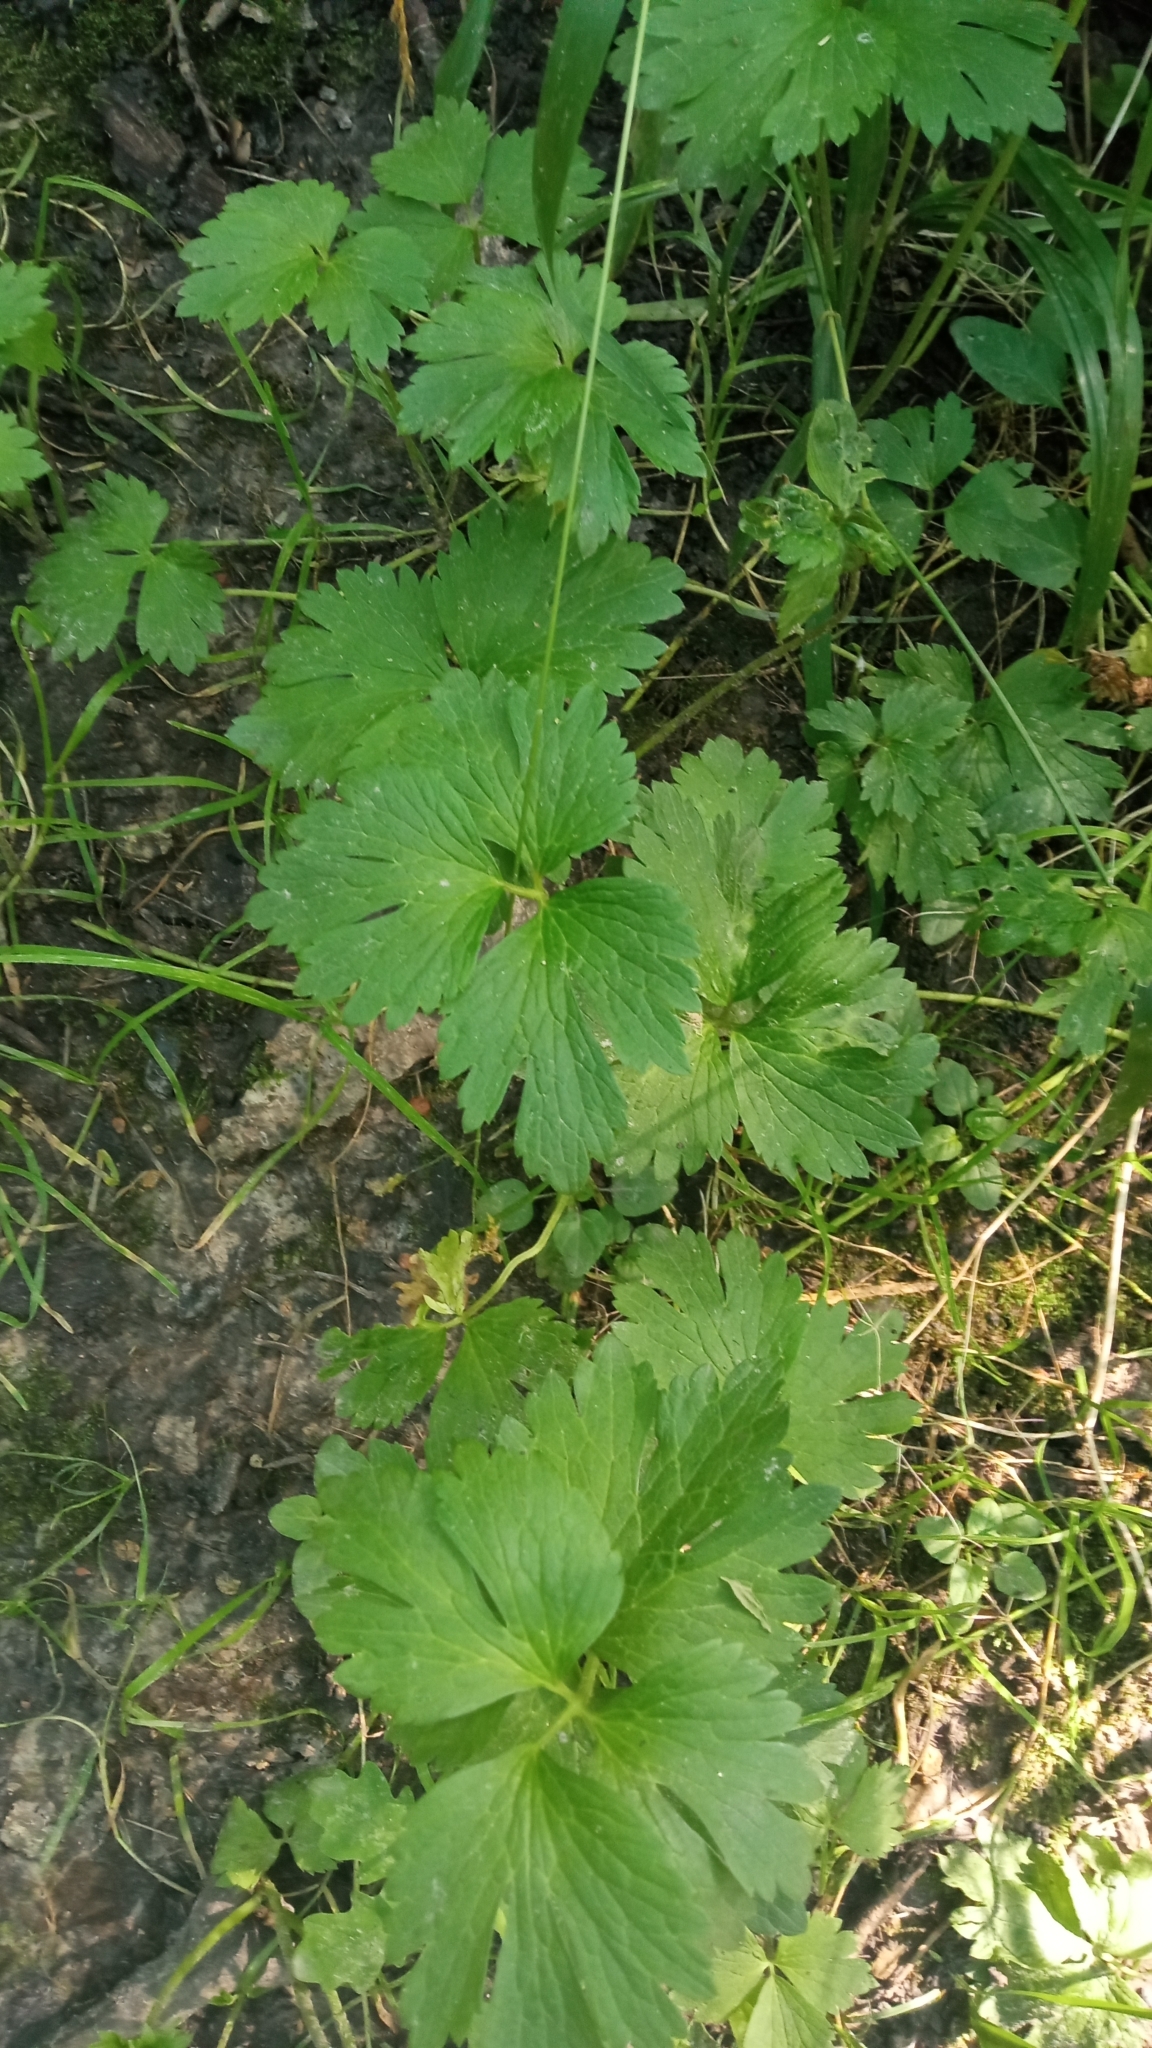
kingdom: Plantae
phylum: Tracheophyta
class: Magnoliopsida
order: Ranunculales
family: Ranunculaceae
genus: Ranunculus
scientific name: Ranunculus repens
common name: Creeping buttercup
